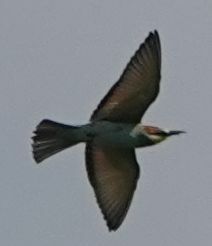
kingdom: Animalia
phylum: Chordata
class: Aves
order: Coraciiformes
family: Meropidae
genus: Merops
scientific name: Merops apiaster
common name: European bee-eater
